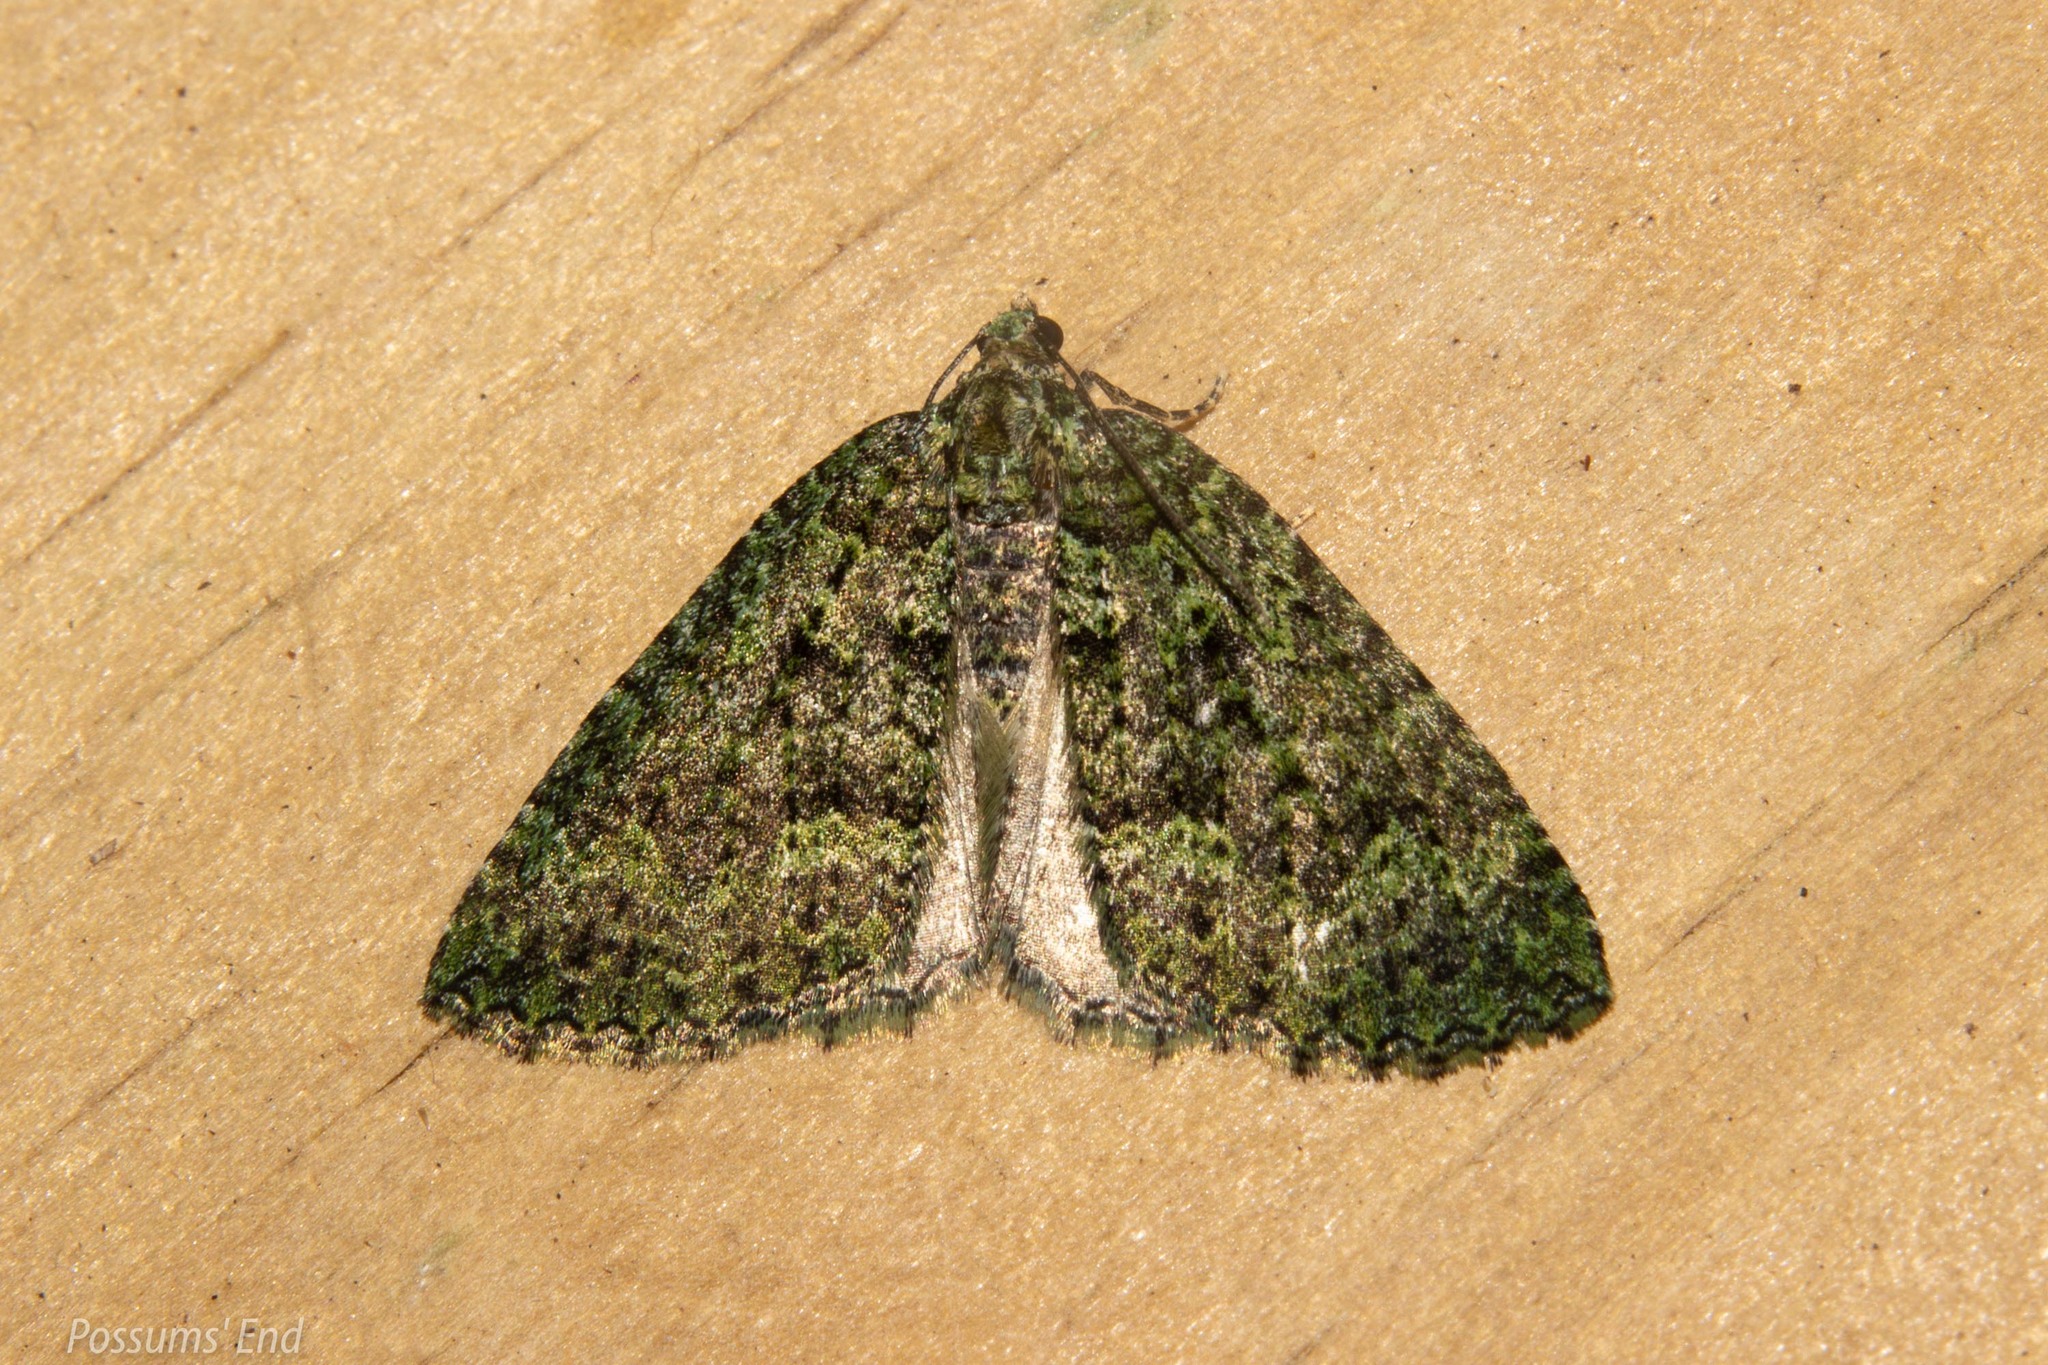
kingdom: Animalia
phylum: Arthropoda
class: Insecta
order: Lepidoptera
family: Geometridae
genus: Austrocidaria
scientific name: Austrocidaria callichlora
